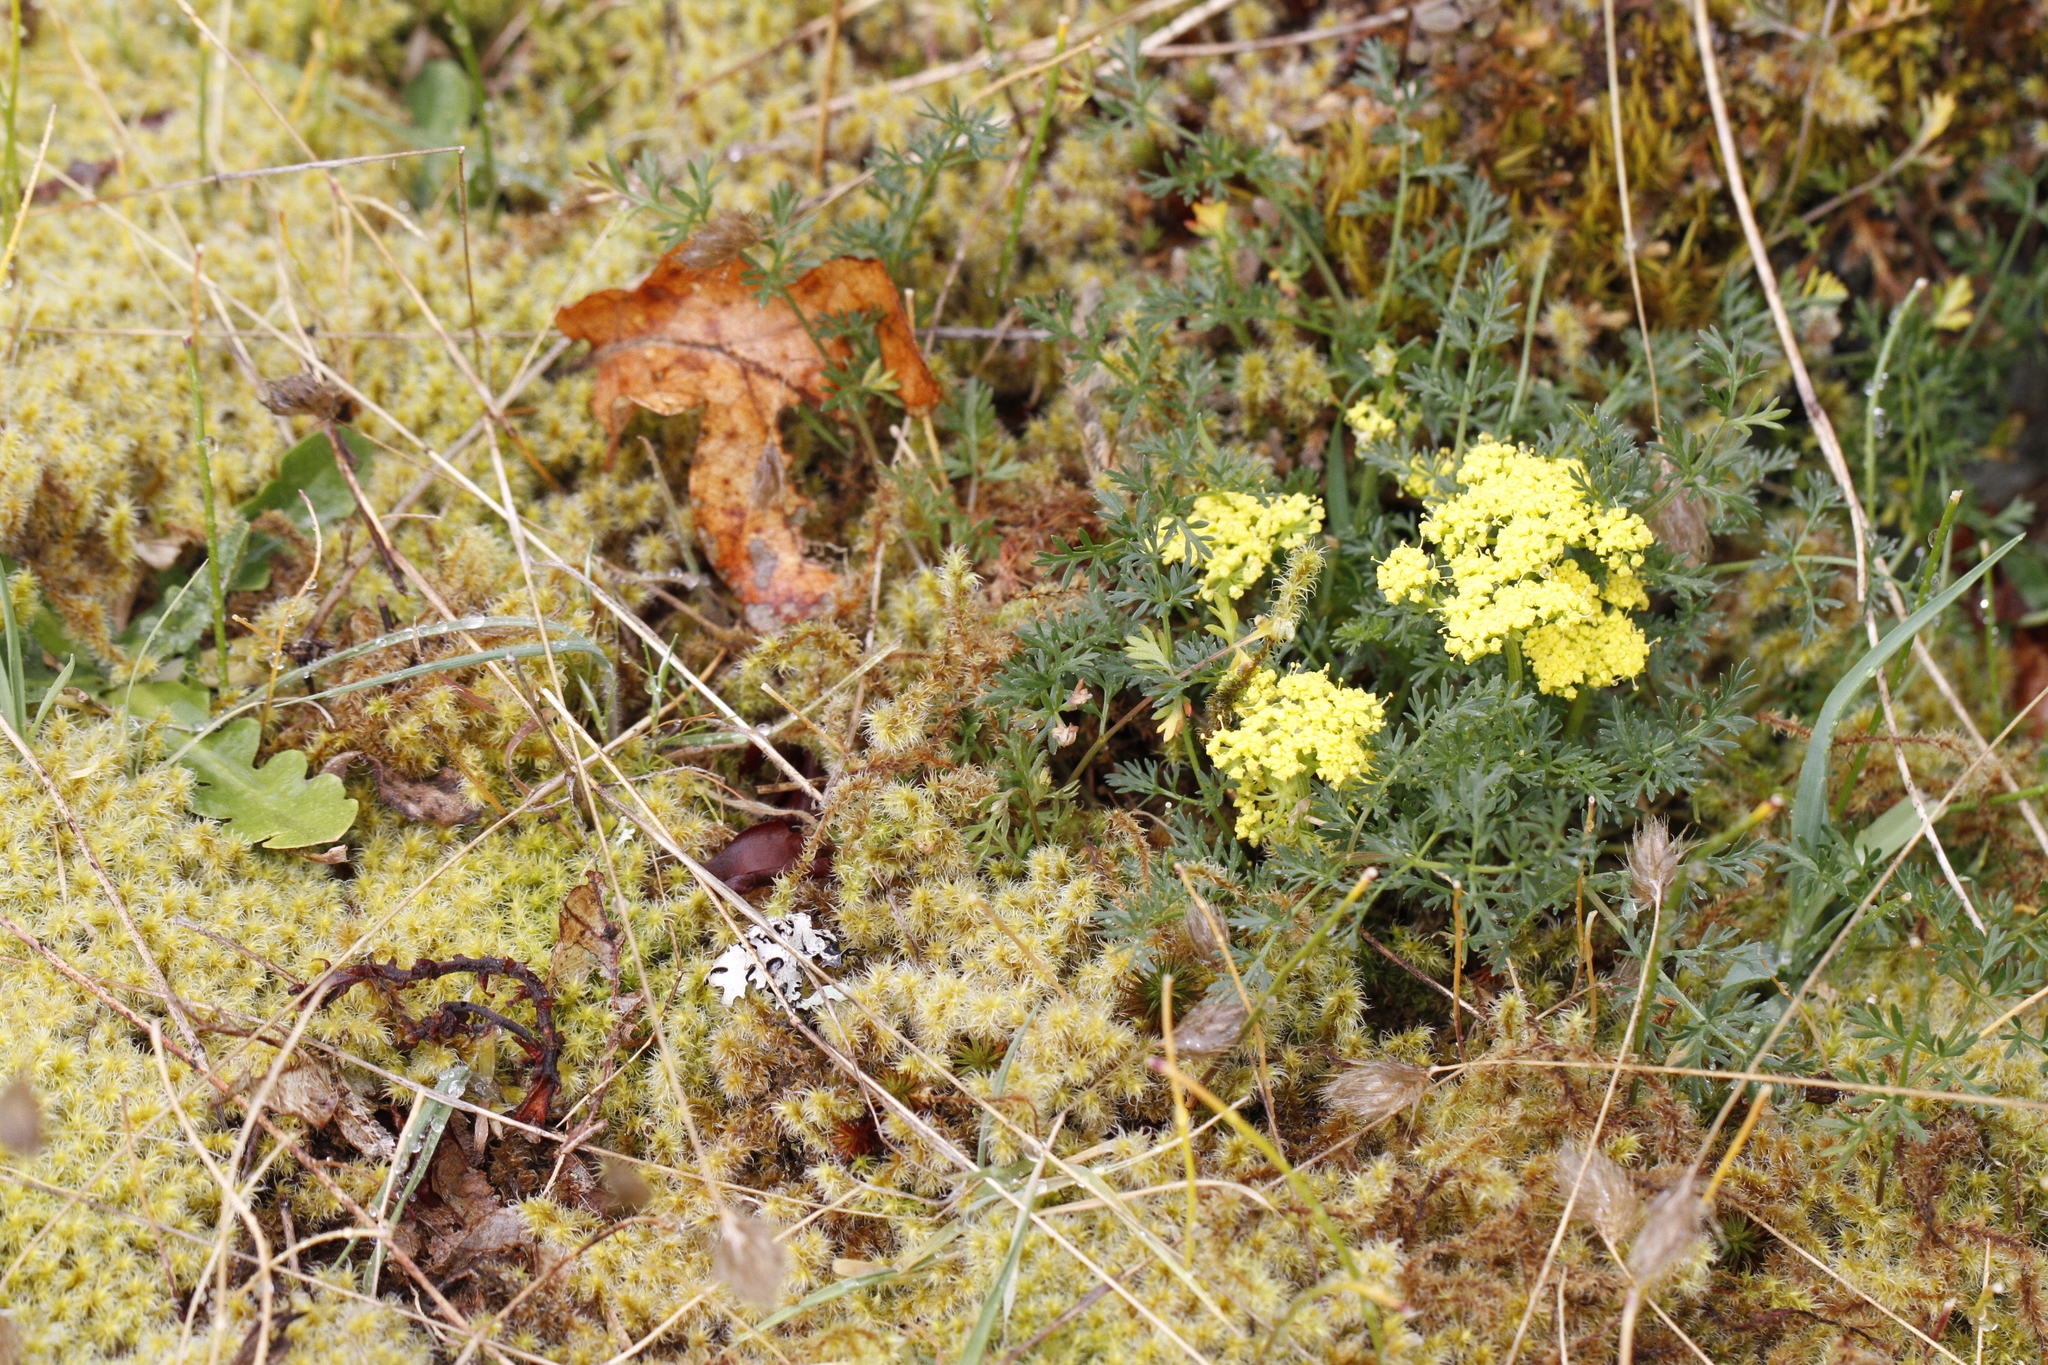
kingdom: Plantae
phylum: Tracheophyta
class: Magnoliopsida
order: Apiales
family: Apiaceae
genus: Lomatium
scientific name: Lomatium utriculatum
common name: Fine-leaf desert-parsley
